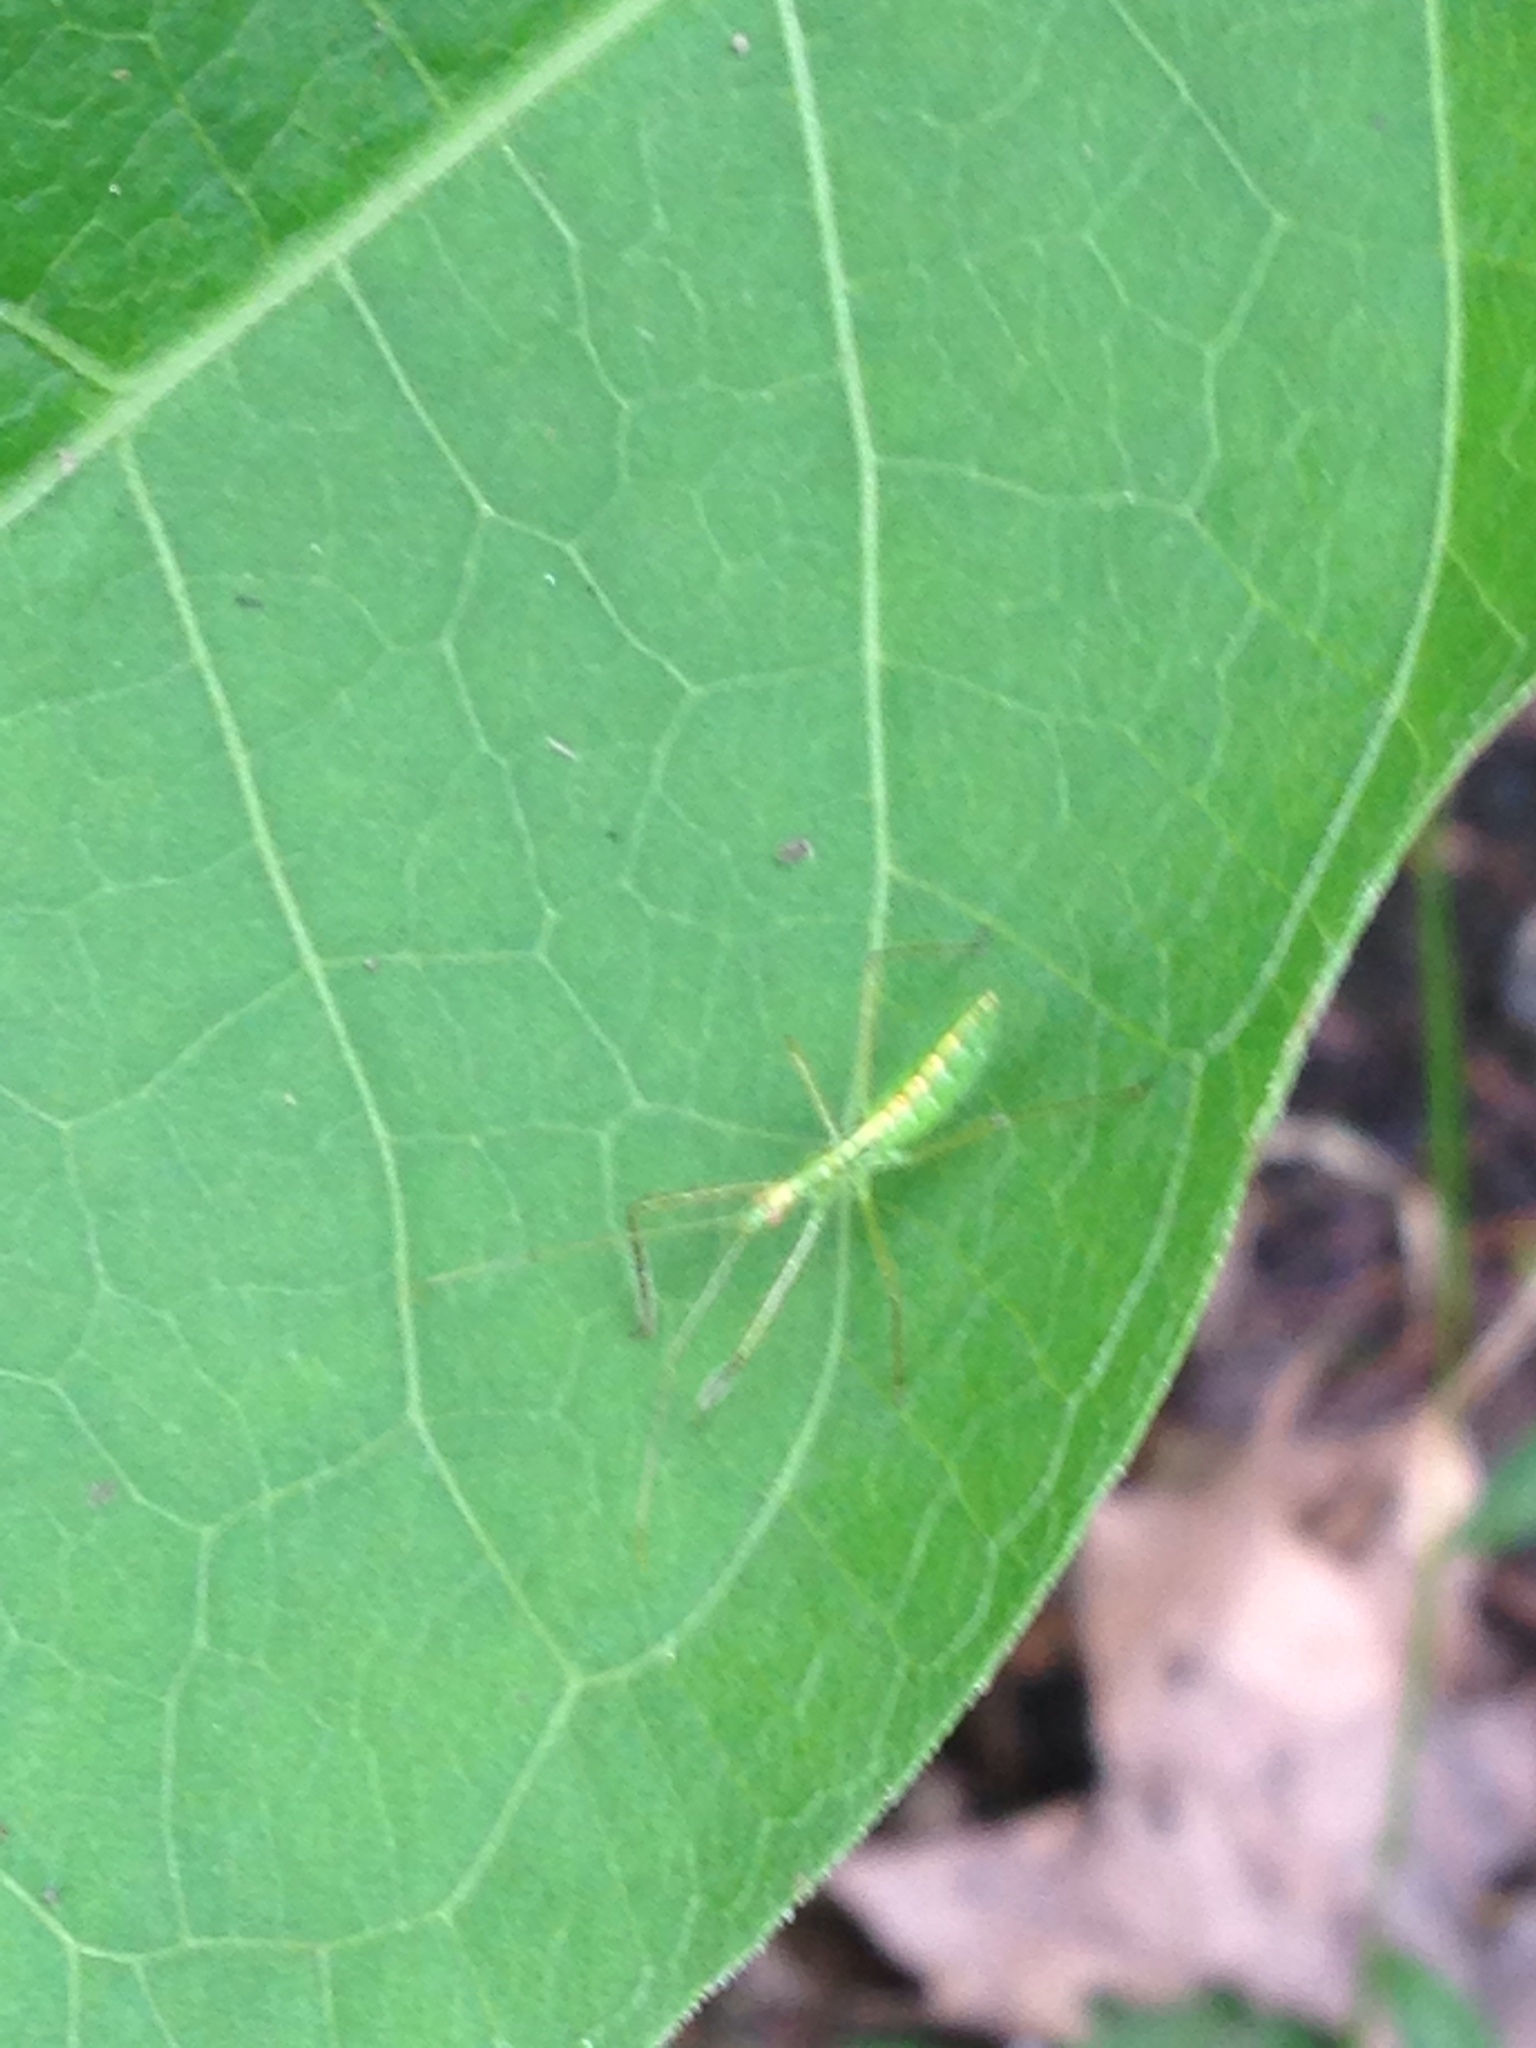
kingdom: Animalia
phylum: Arthropoda
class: Insecta
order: Hemiptera
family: Reduviidae
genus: Zelus
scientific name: Zelus luridus
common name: Pale green assassin bug
